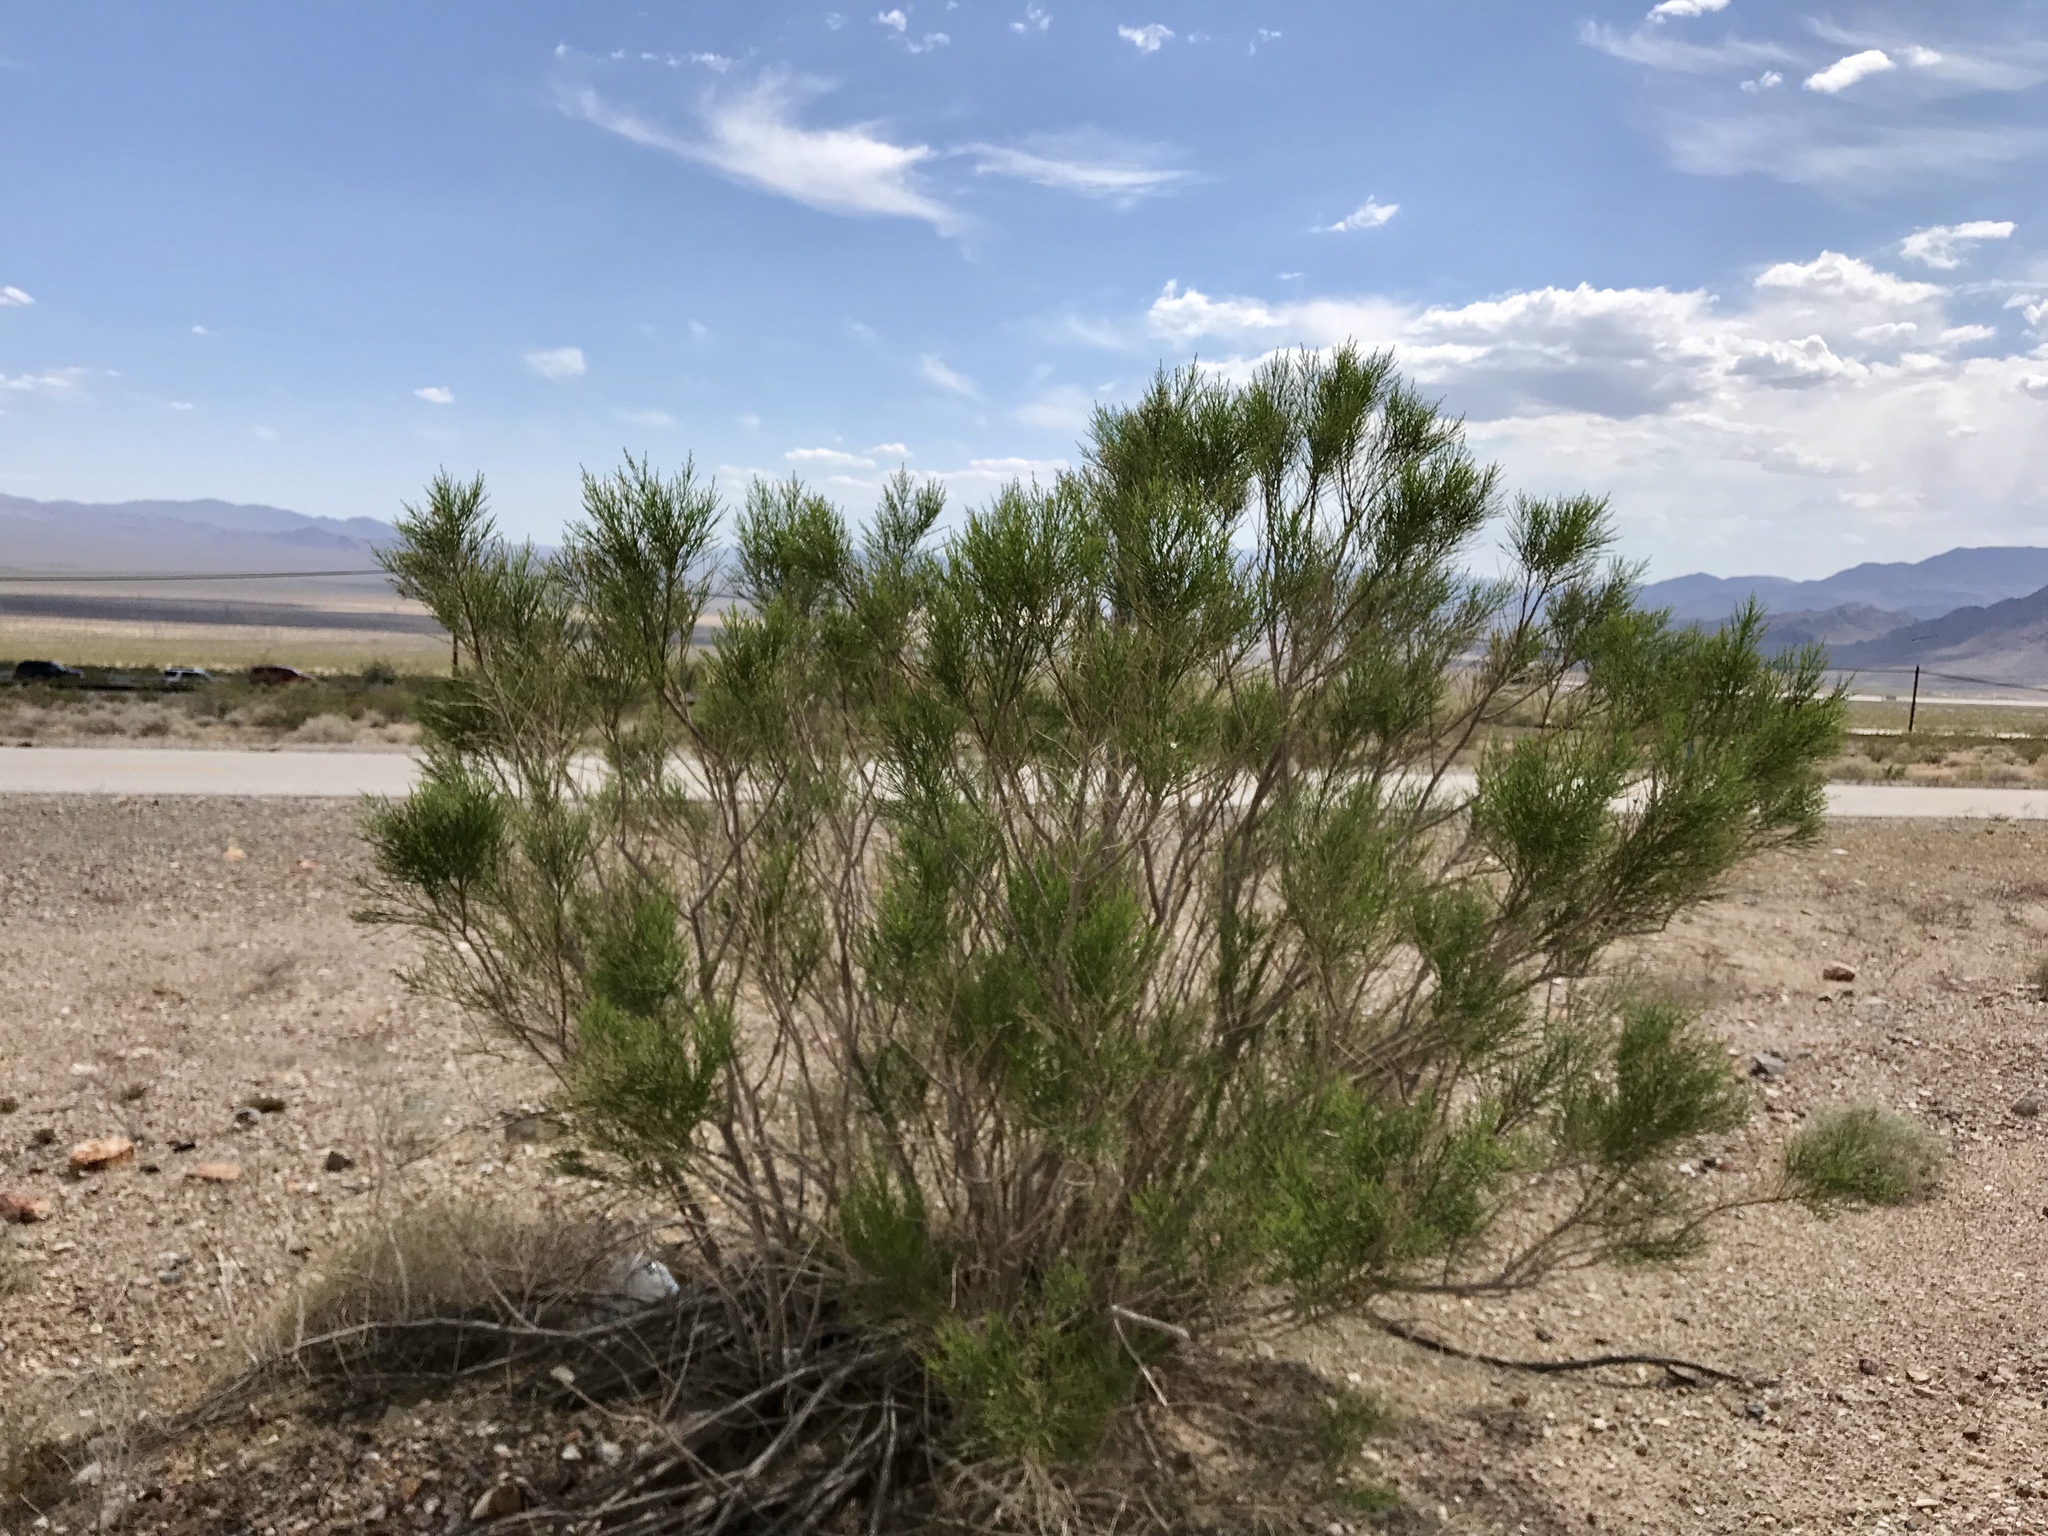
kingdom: Plantae
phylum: Tracheophyta
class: Magnoliopsida
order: Asterales
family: Asteraceae
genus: Baccharis
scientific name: Baccharis sarothroides
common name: Desert-broom
